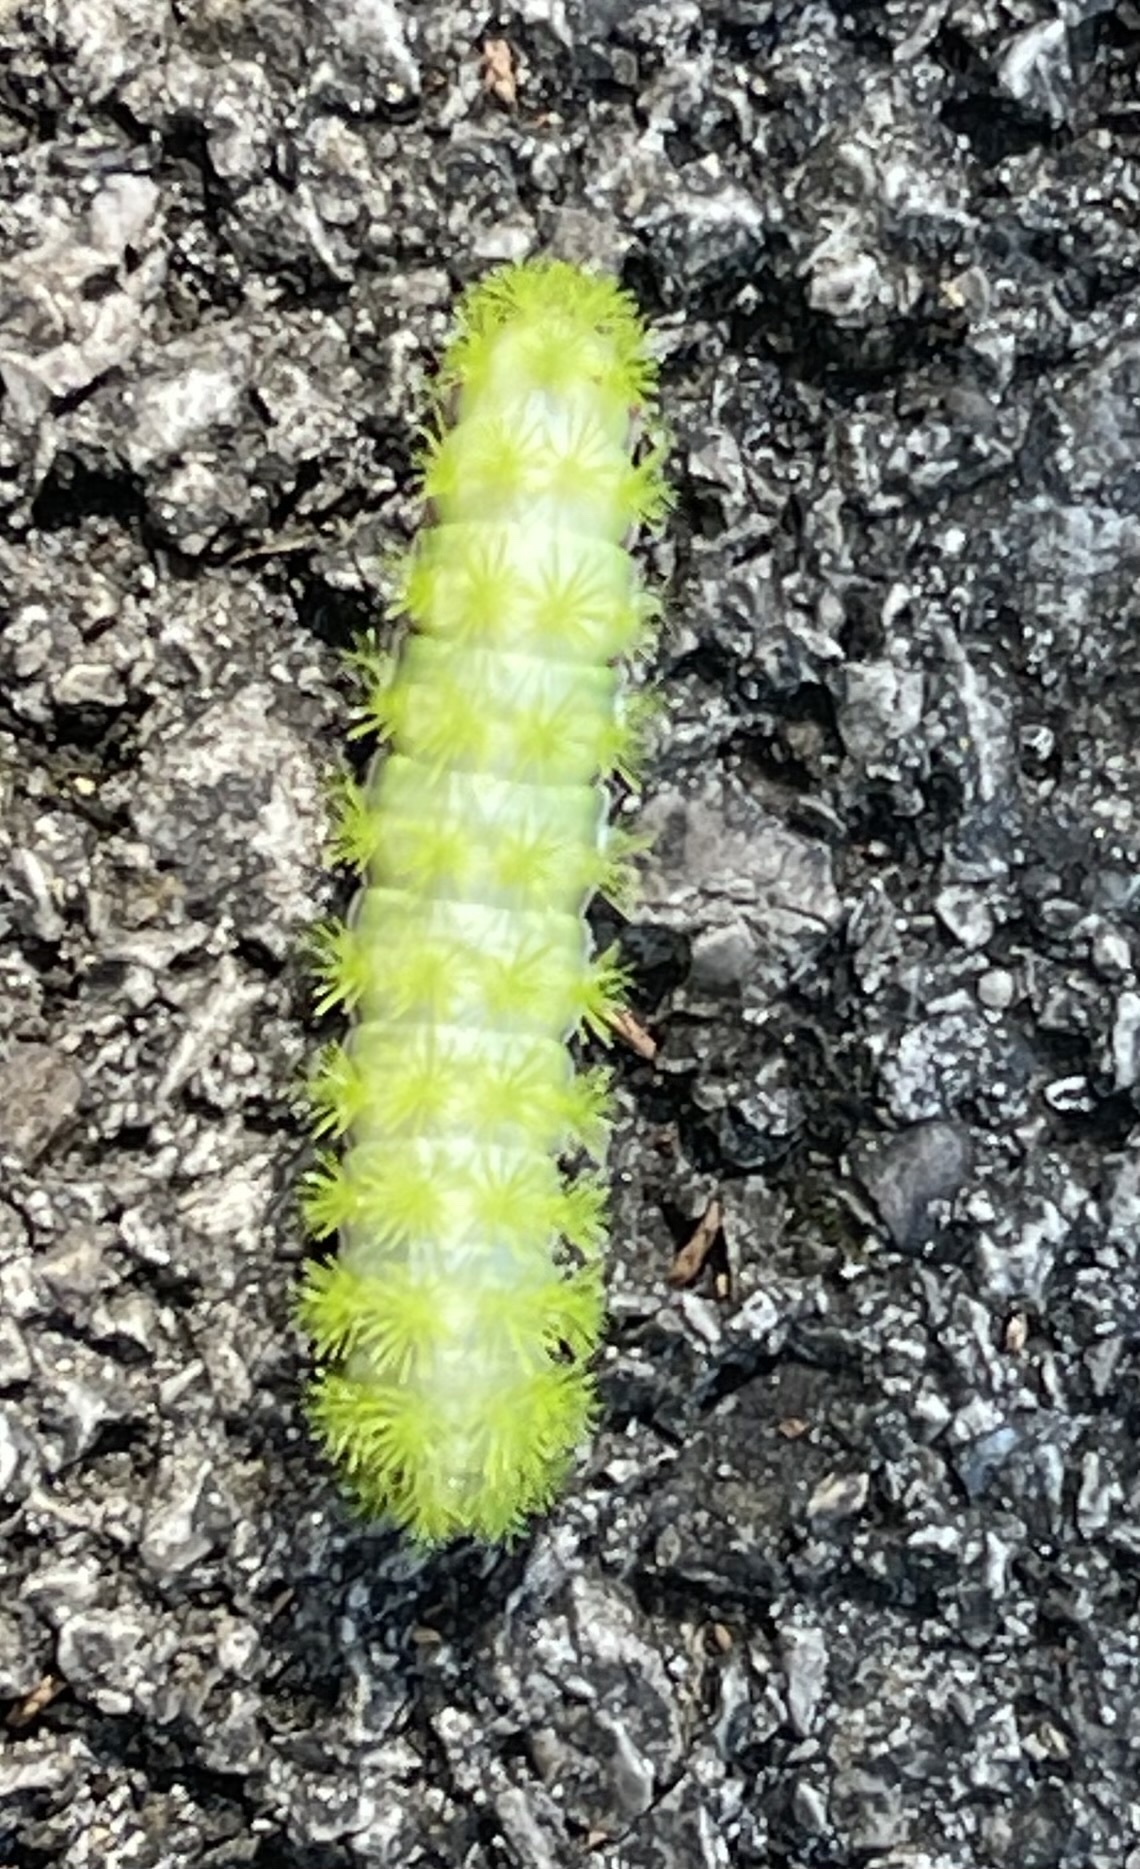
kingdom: Animalia
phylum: Arthropoda
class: Insecta
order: Lepidoptera
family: Saturniidae
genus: Automeris
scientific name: Automeris io
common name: Io moth
